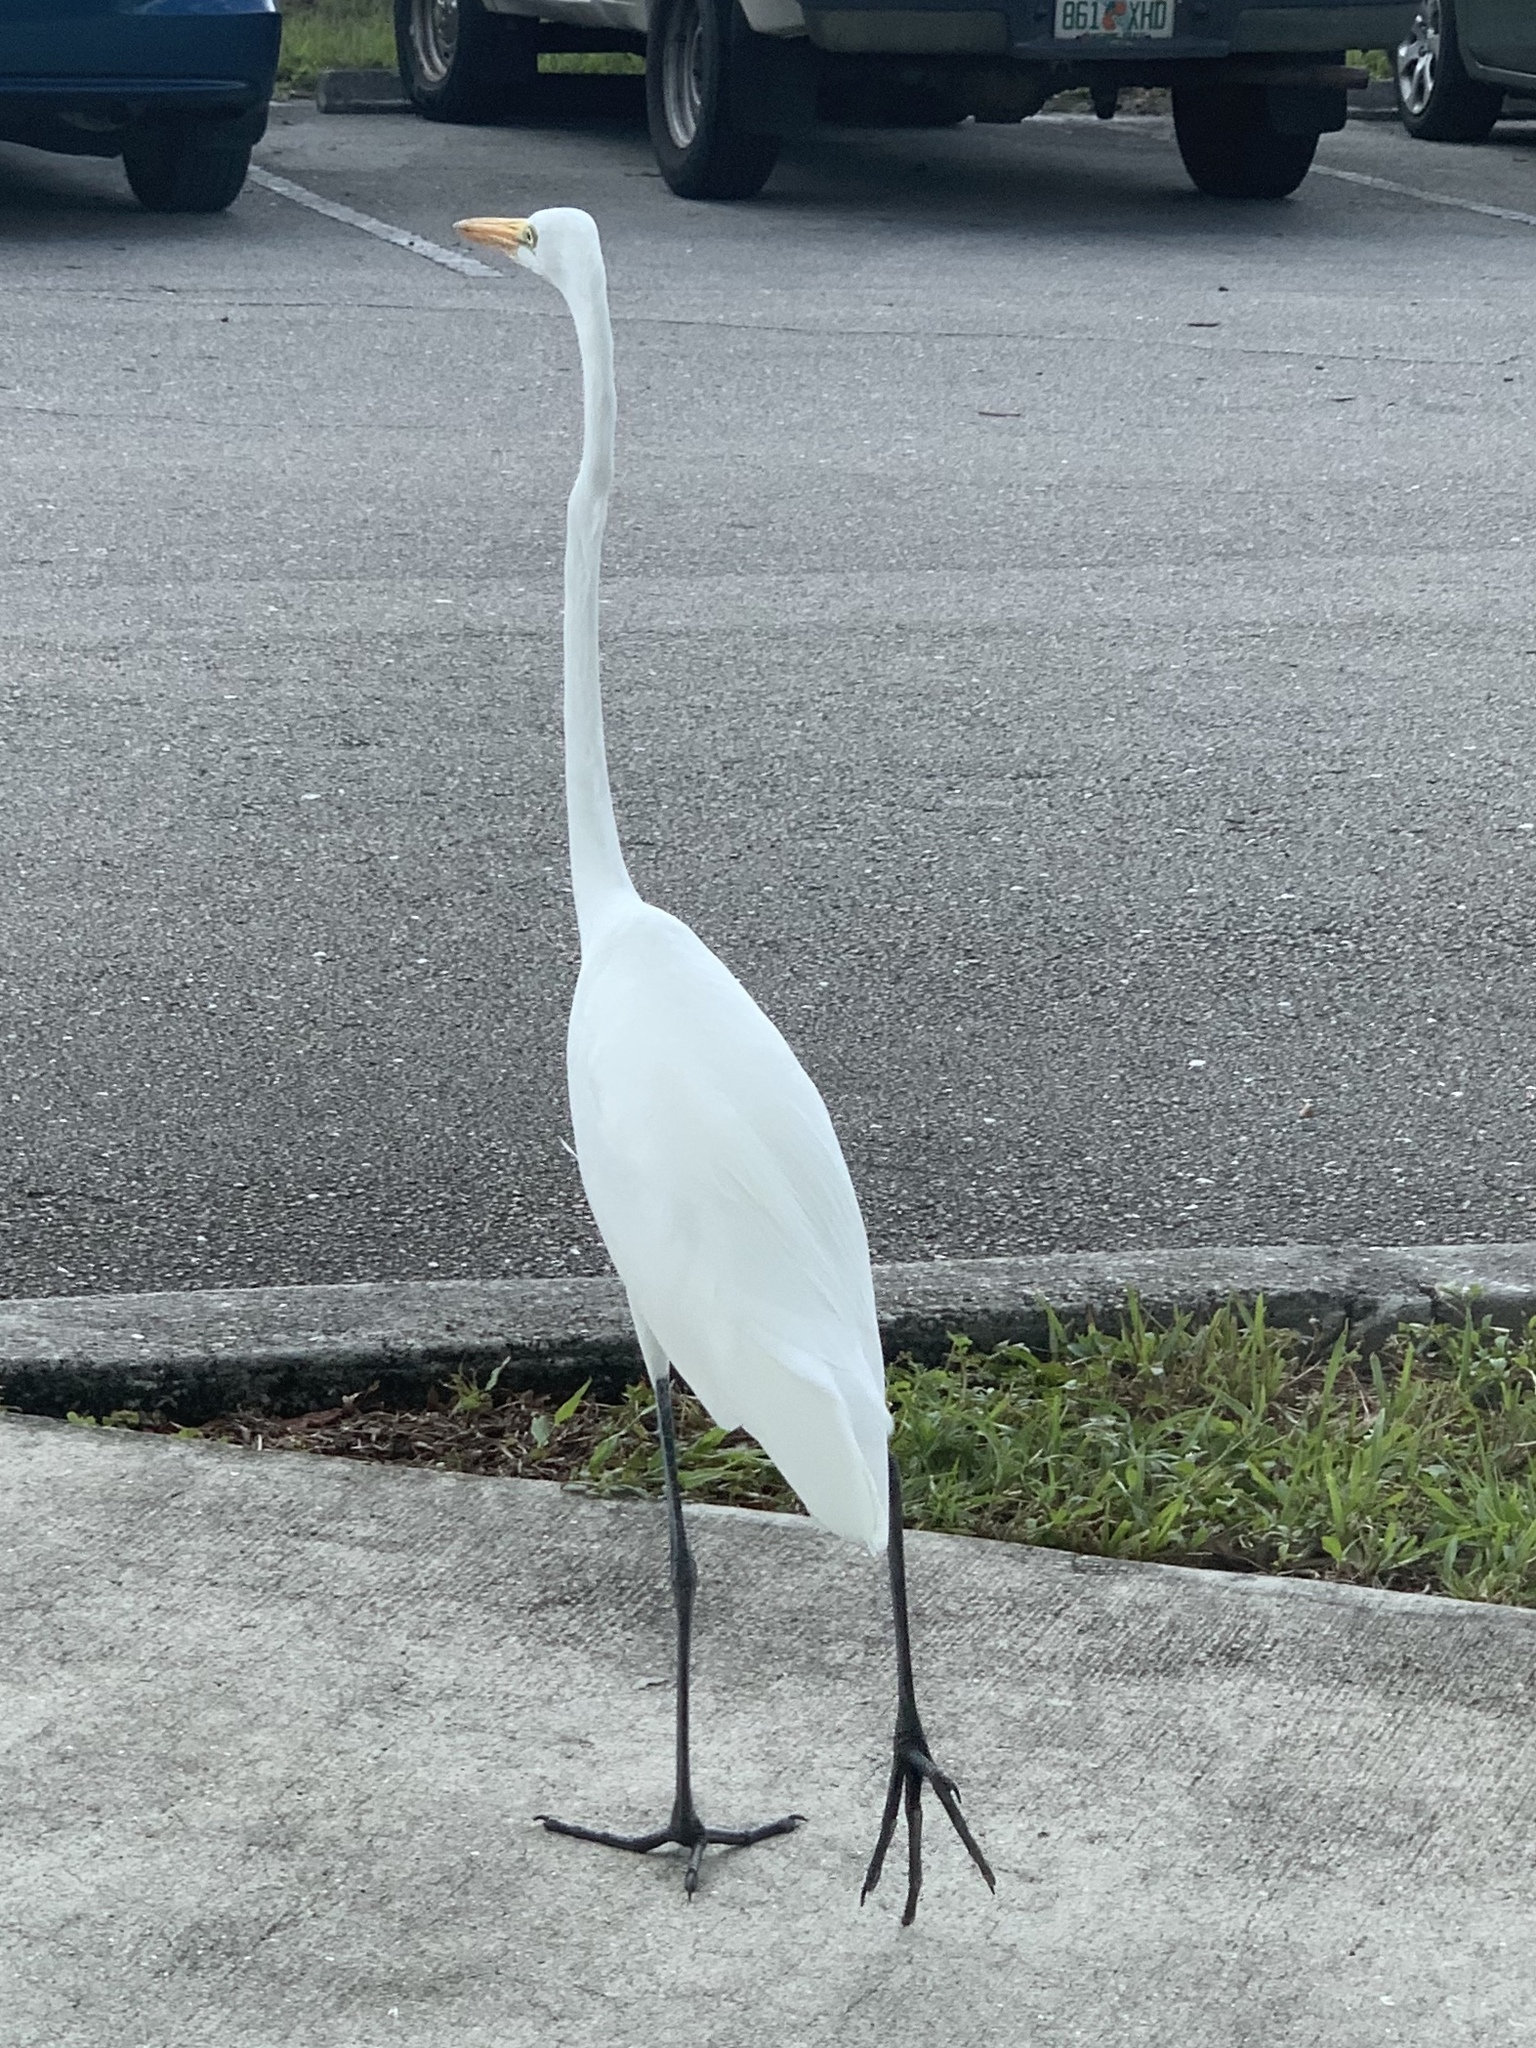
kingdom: Animalia
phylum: Chordata
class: Aves
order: Pelecaniformes
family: Ardeidae
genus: Ardea
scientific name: Ardea alba
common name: Great egret
